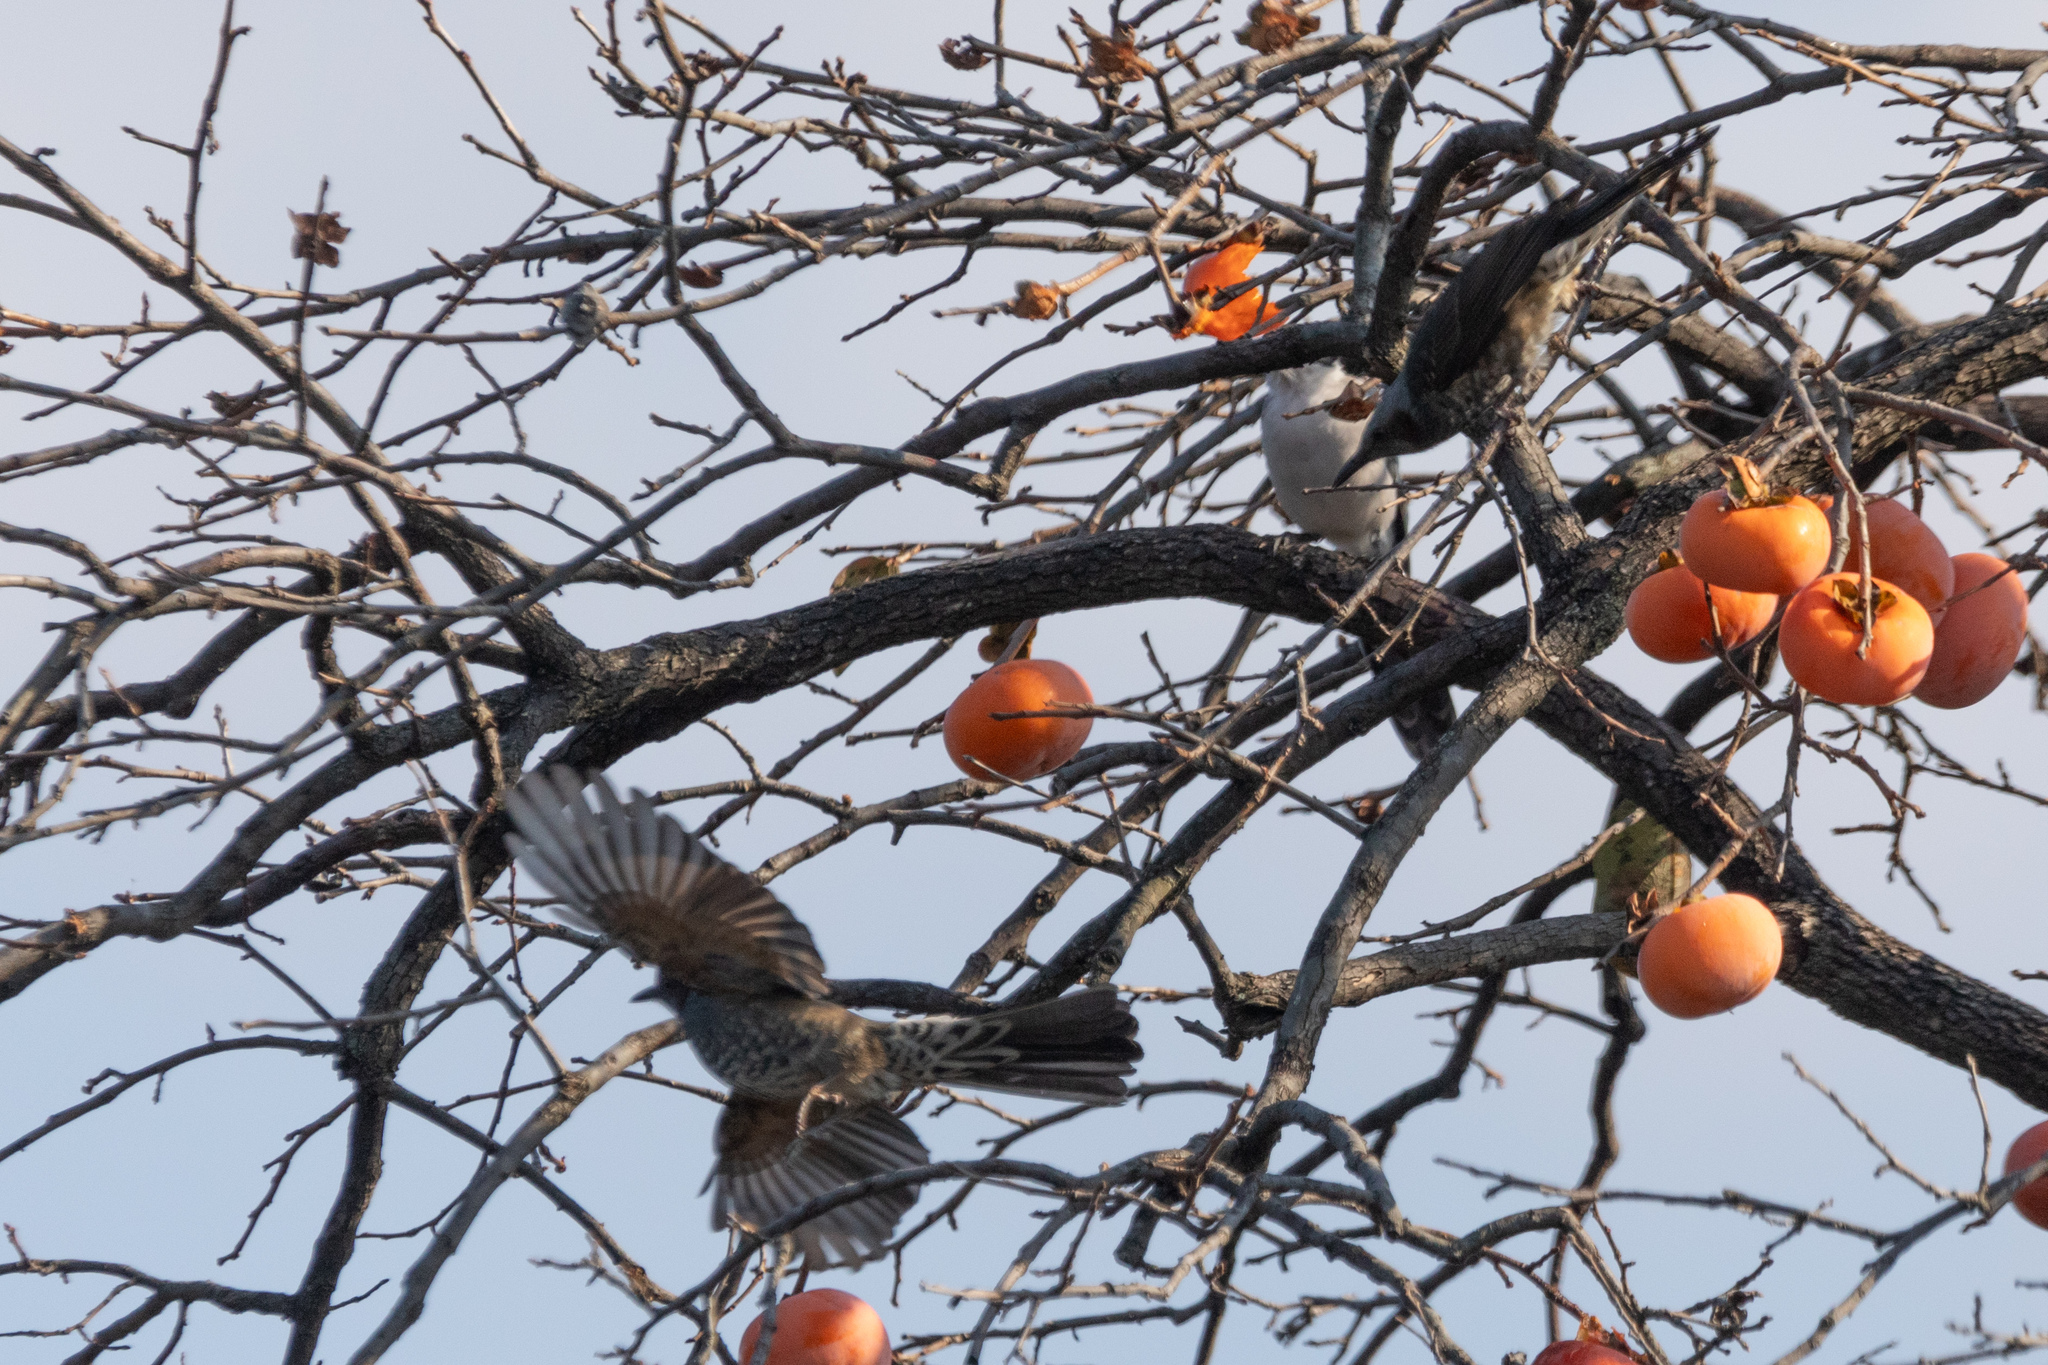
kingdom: Animalia
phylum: Chordata
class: Aves
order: Passeriformes
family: Pycnonotidae
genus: Hypsipetes
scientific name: Hypsipetes amaurotis
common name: Brown-eared bulbul
